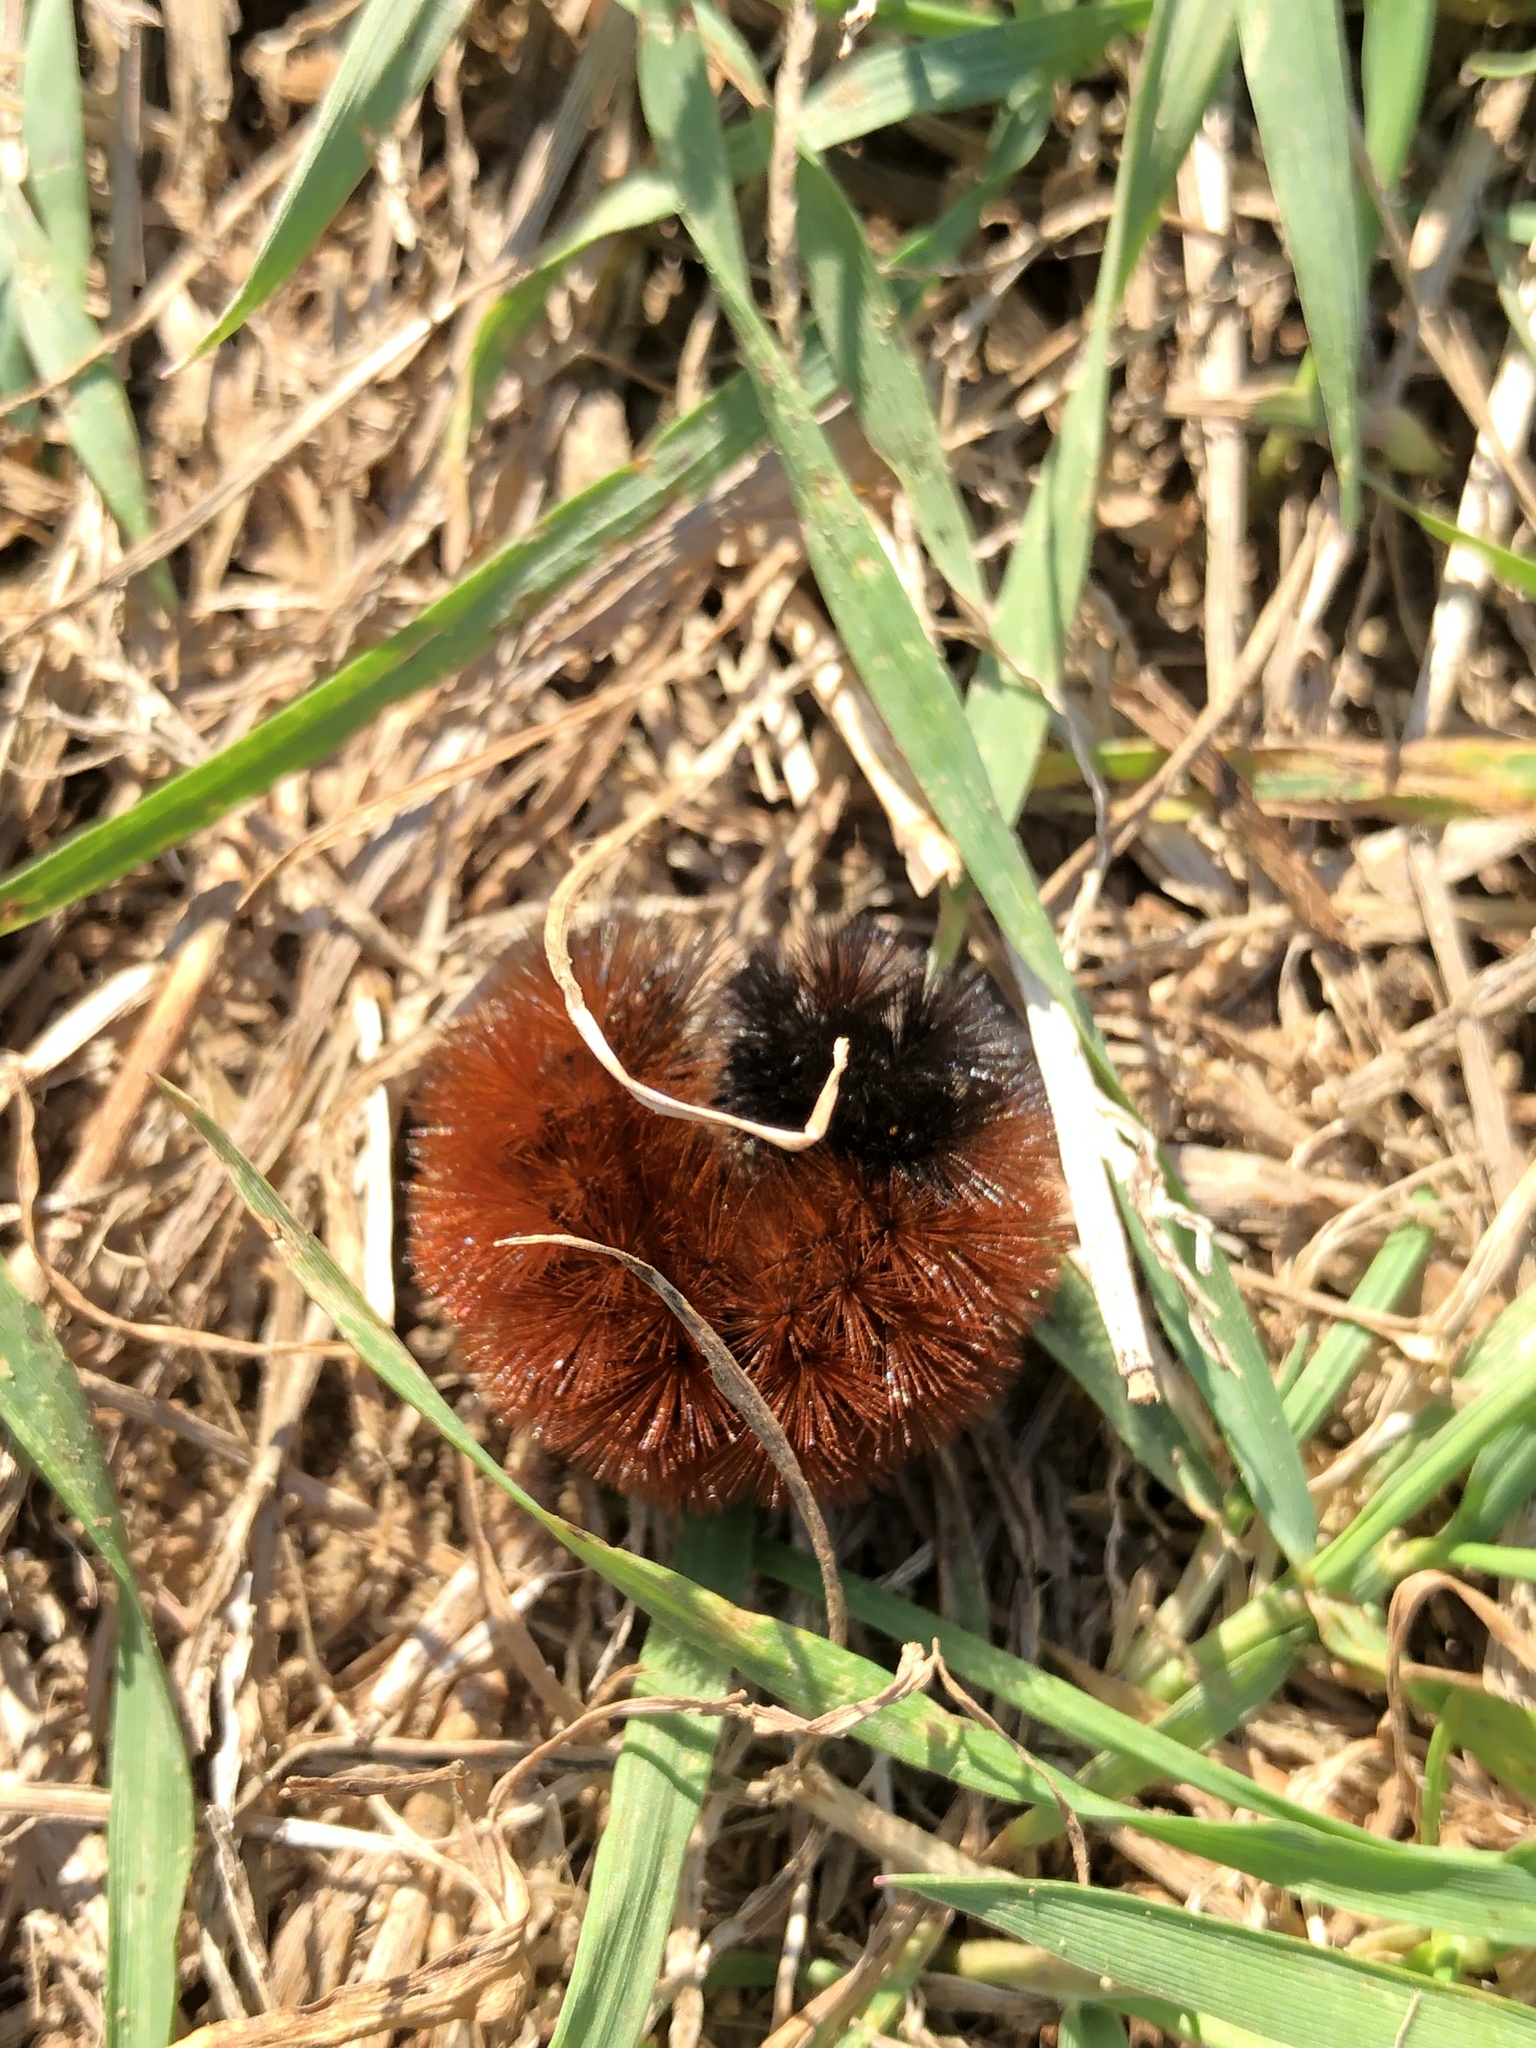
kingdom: Animalia
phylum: Arthropoda
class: Insecta
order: Lepidoptera
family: Erebidae
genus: Pyrrharctia
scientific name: Pyrrharctia isabella
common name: Isabella tiger moth
